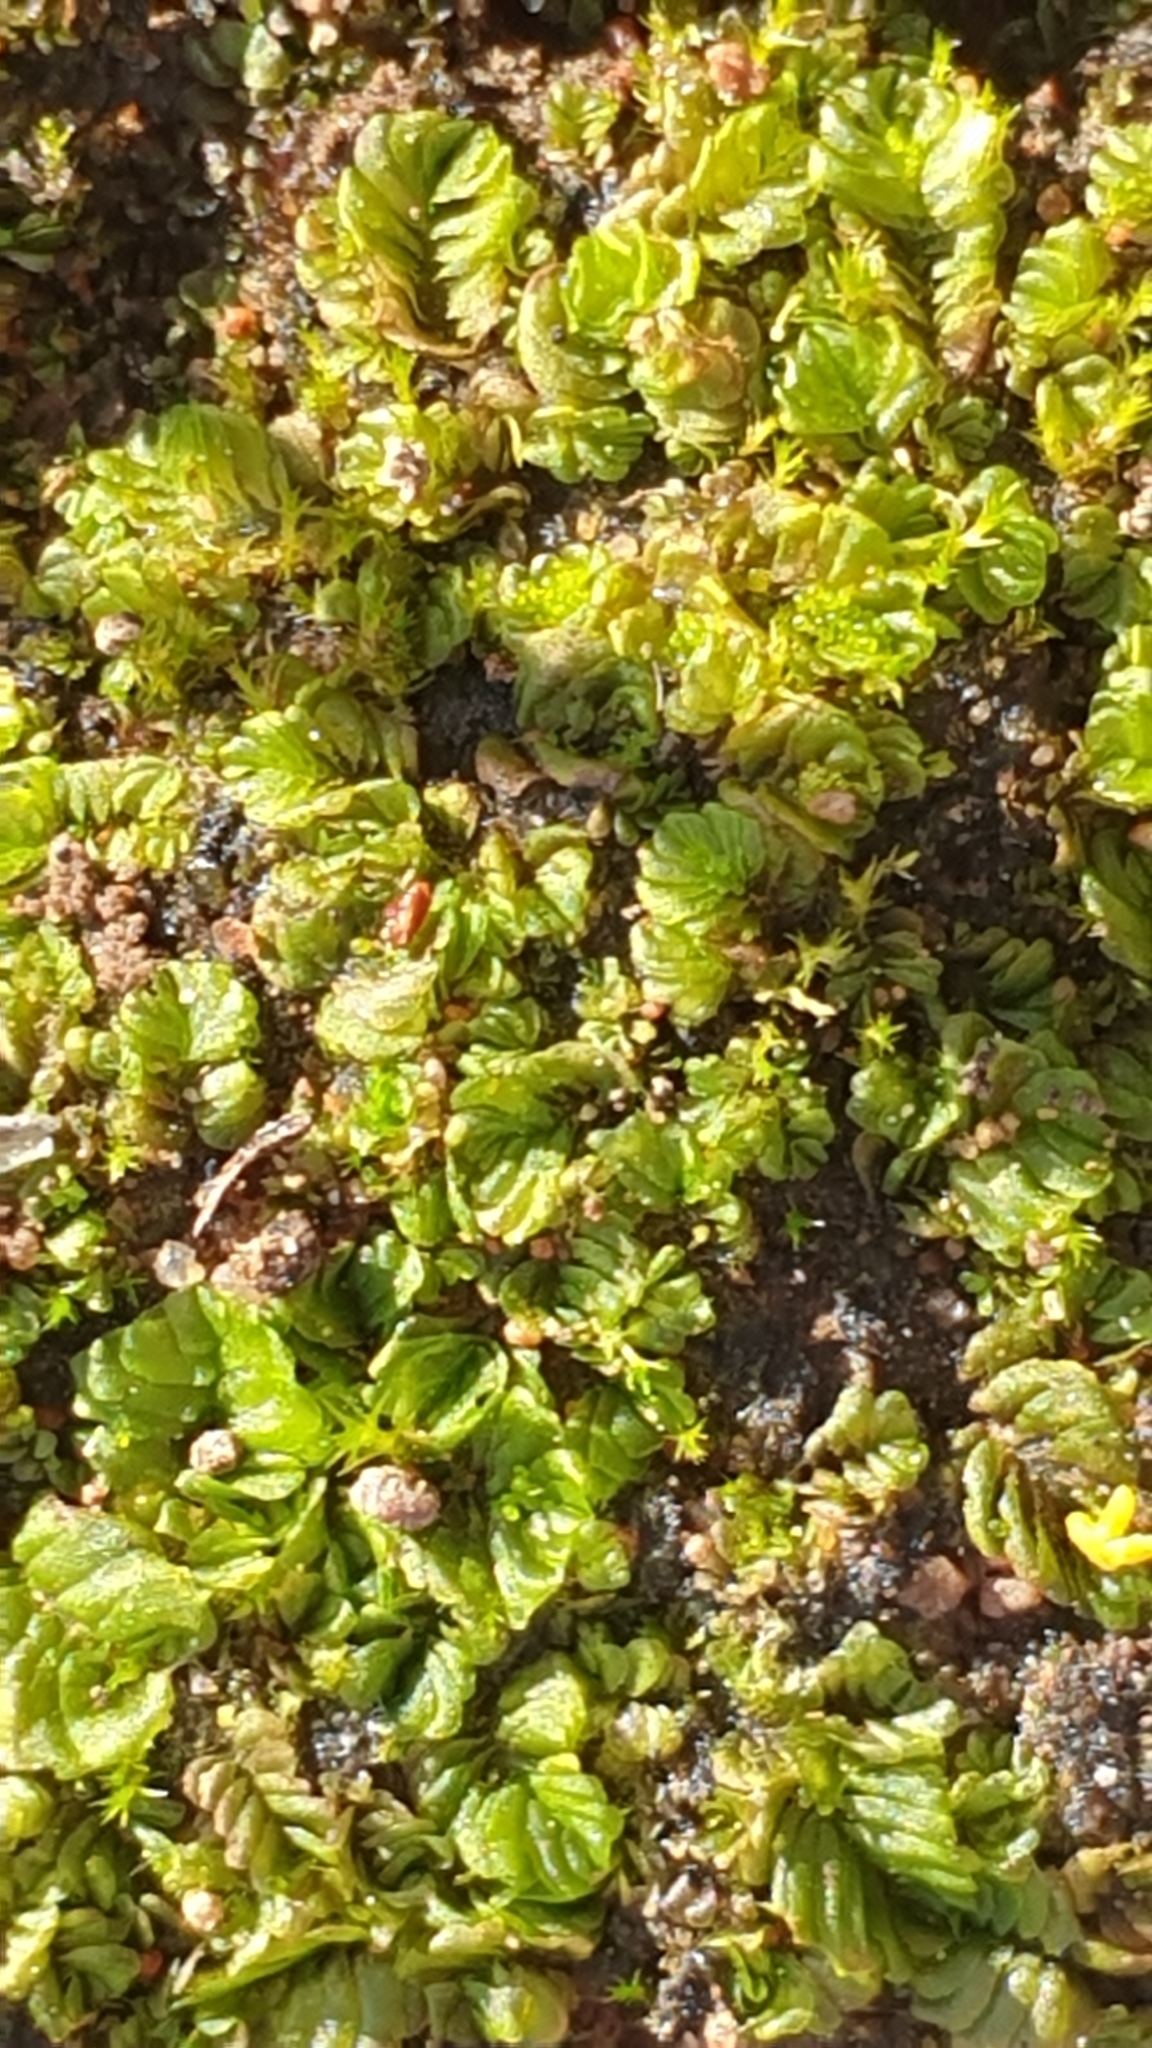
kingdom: Plantae
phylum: Marchantiophyta
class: Jungermanniopsida
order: Jungermanniales
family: Acrobolbaceae
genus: Lethocolea
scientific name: Lethocolea pansa
